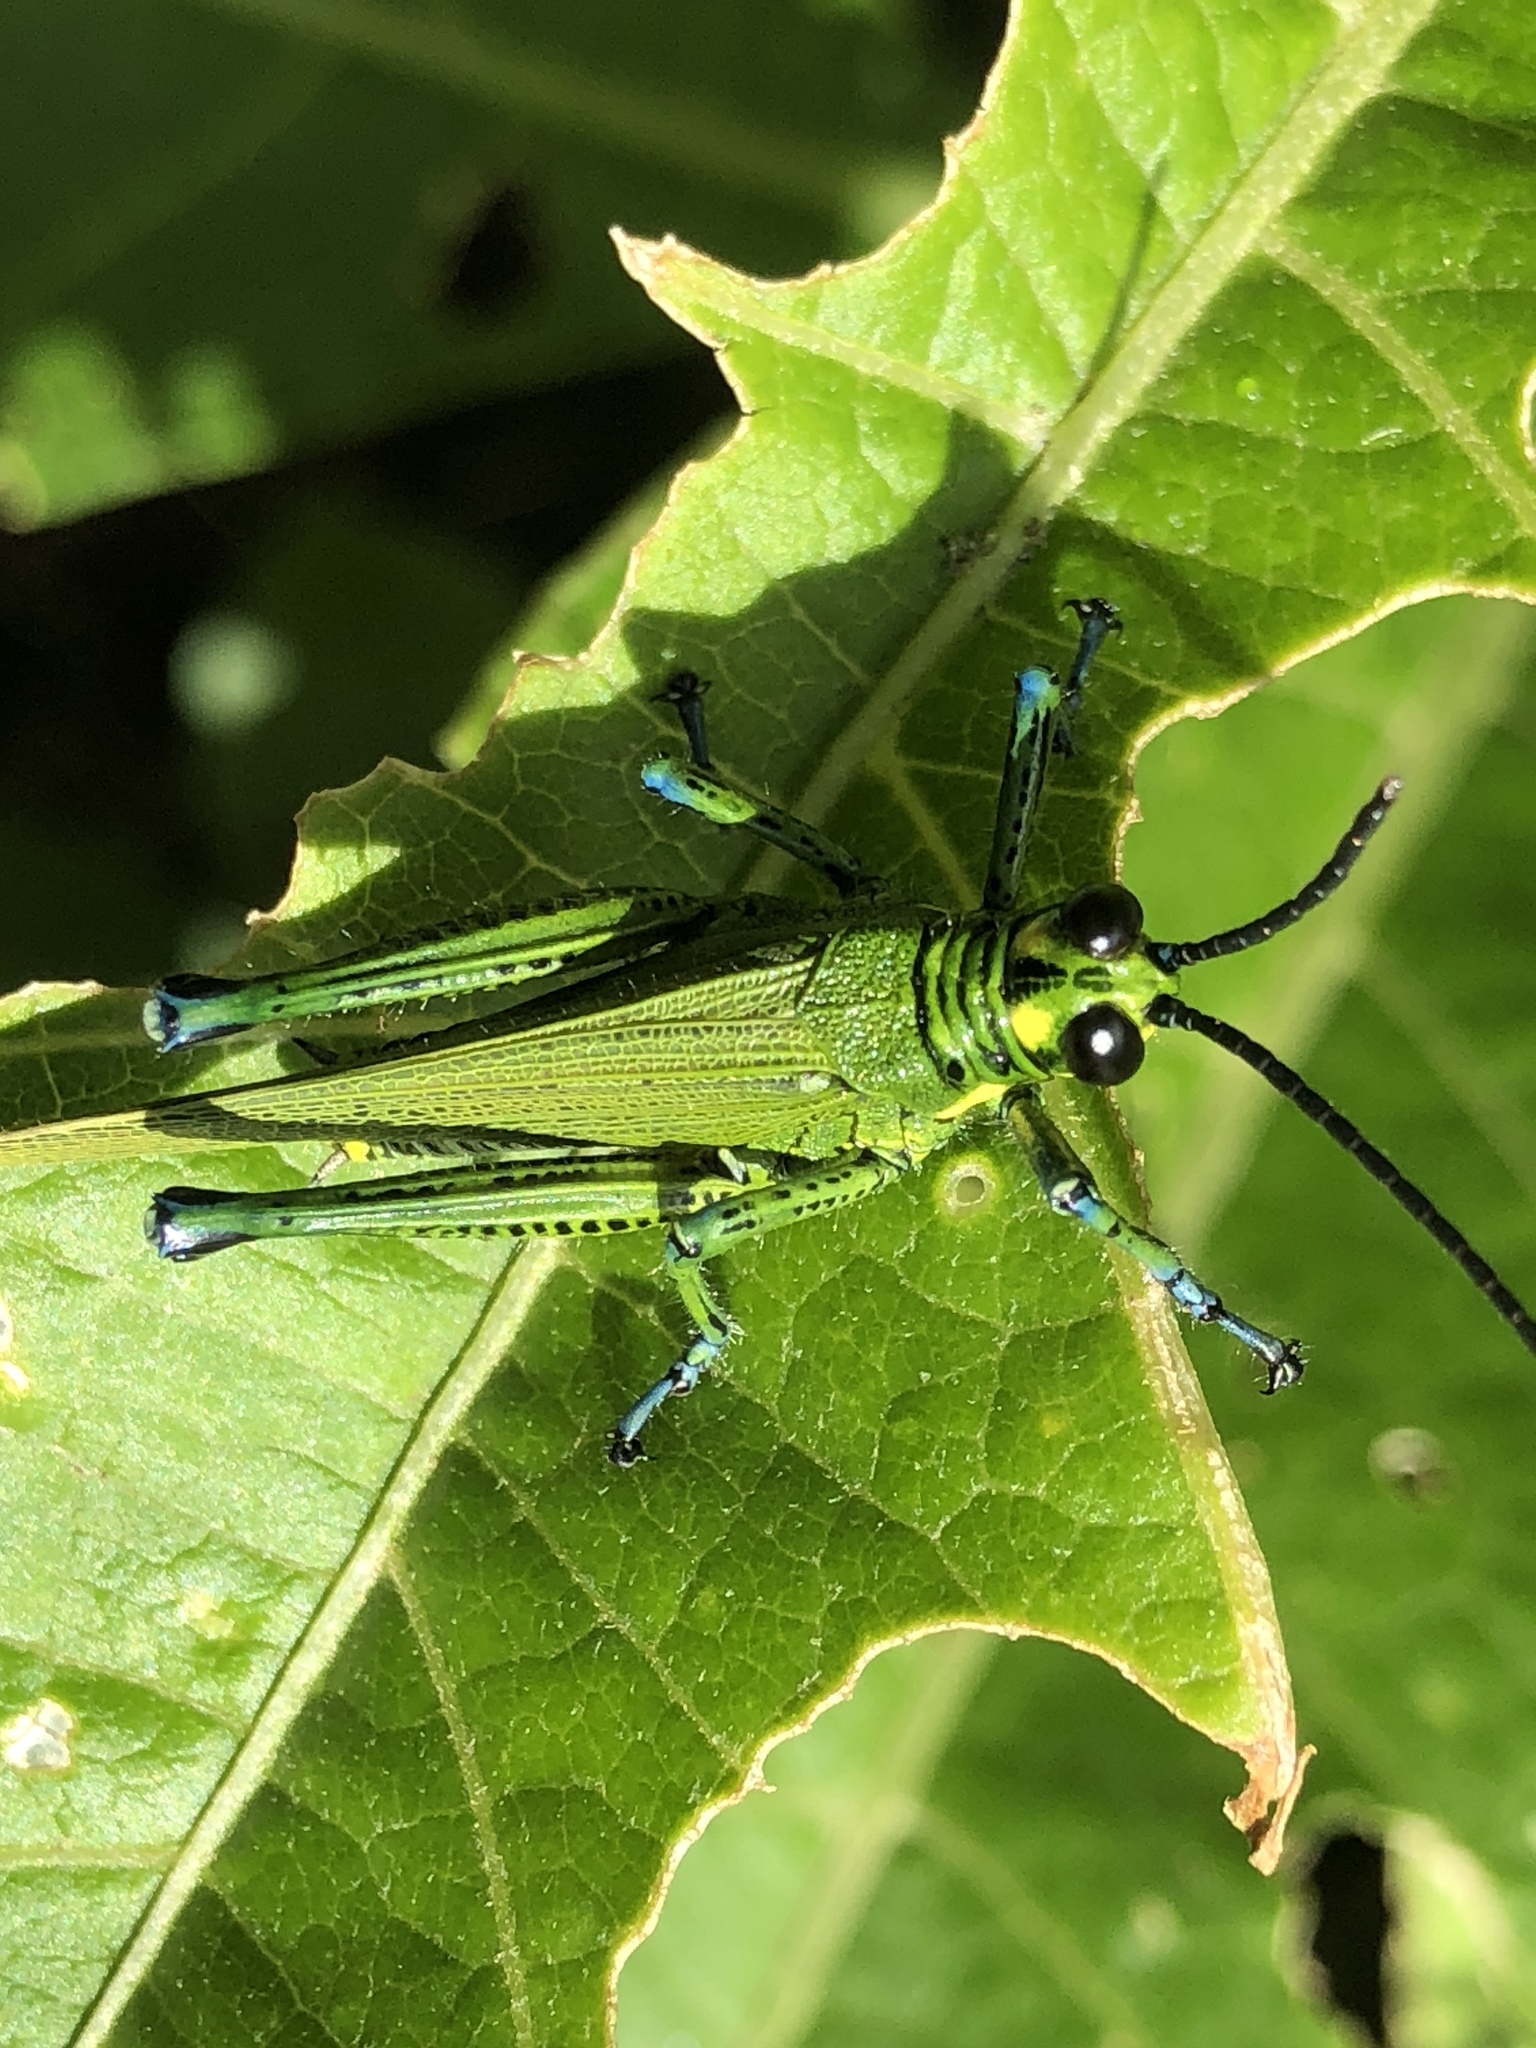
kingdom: Animalia
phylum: Arthropoda
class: Insecta
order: Orthoptera
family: Romaleidae
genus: Chromacris
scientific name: Chromacris trogon
